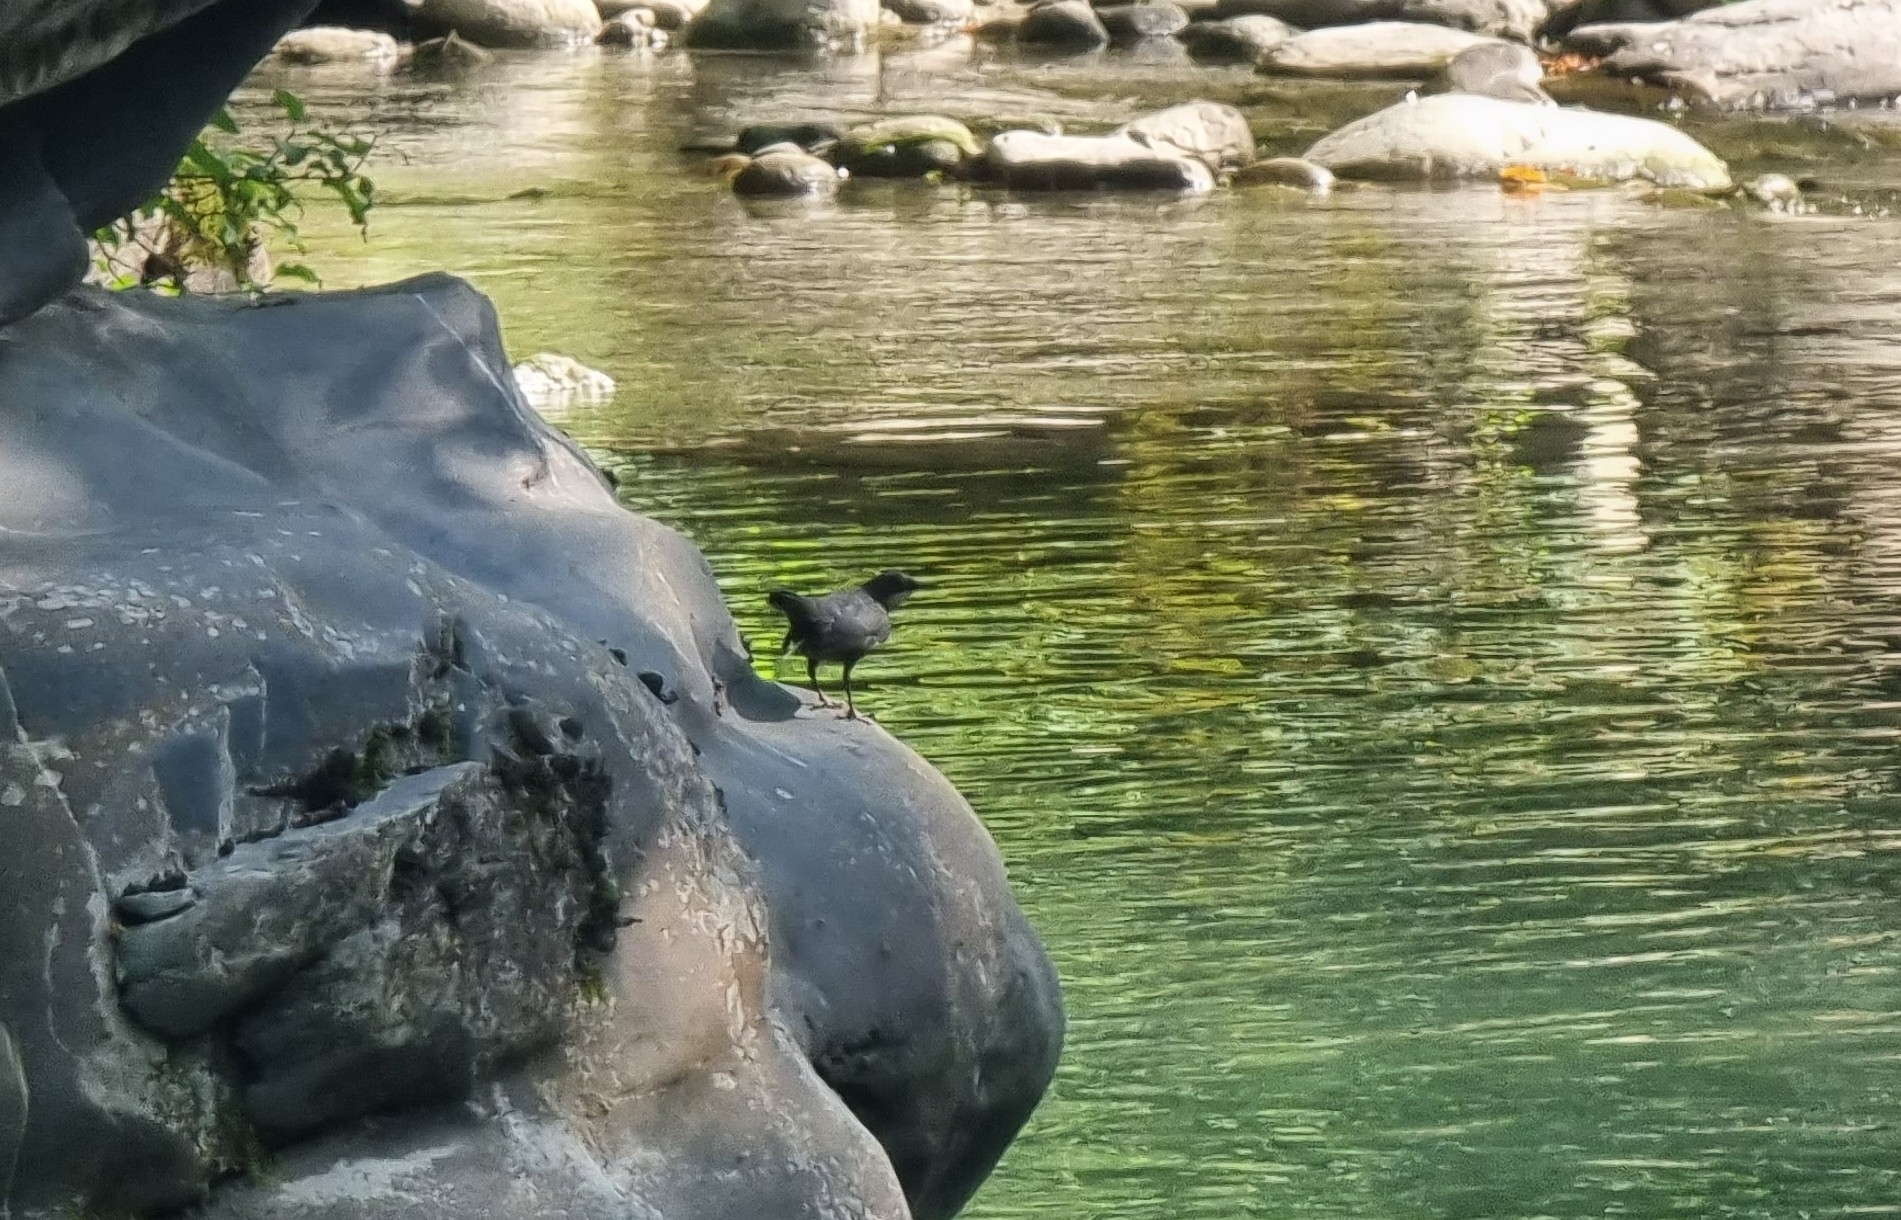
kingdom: Animalia
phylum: Chordata
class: Aves
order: Passeriformes
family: Cinclidae
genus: Cinclus
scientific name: Cinclus cinclus
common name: White-throated dipper
